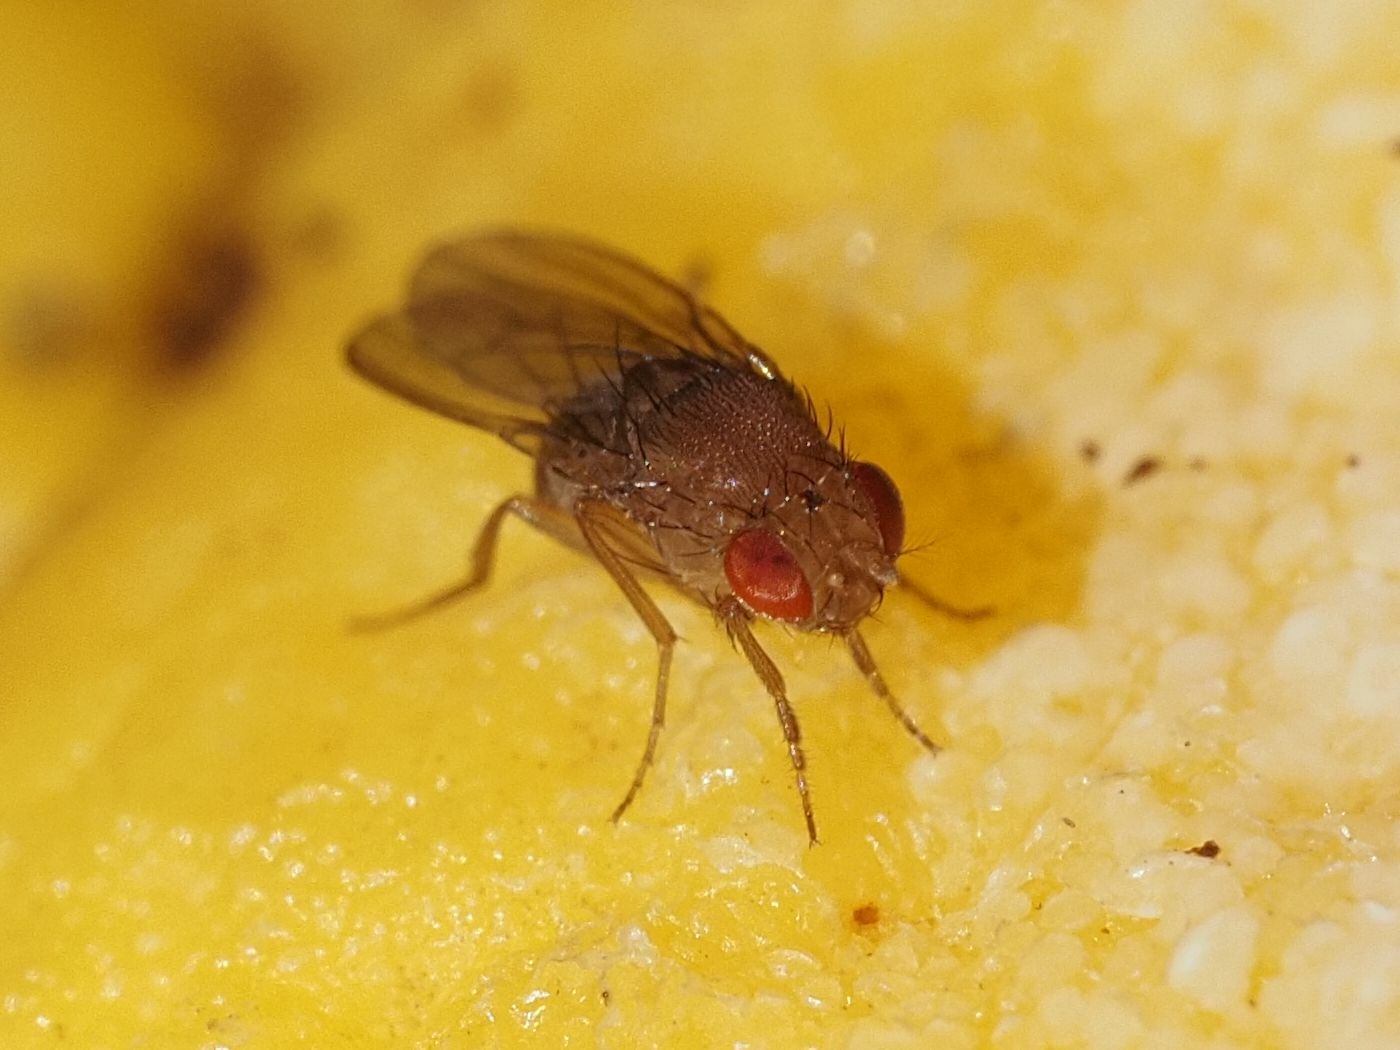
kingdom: Animalia
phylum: Arthropoda
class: Insecta
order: Diptera
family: Drosophilidae
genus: Drosophila
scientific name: Drosophila immigrans
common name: Pomace fly
